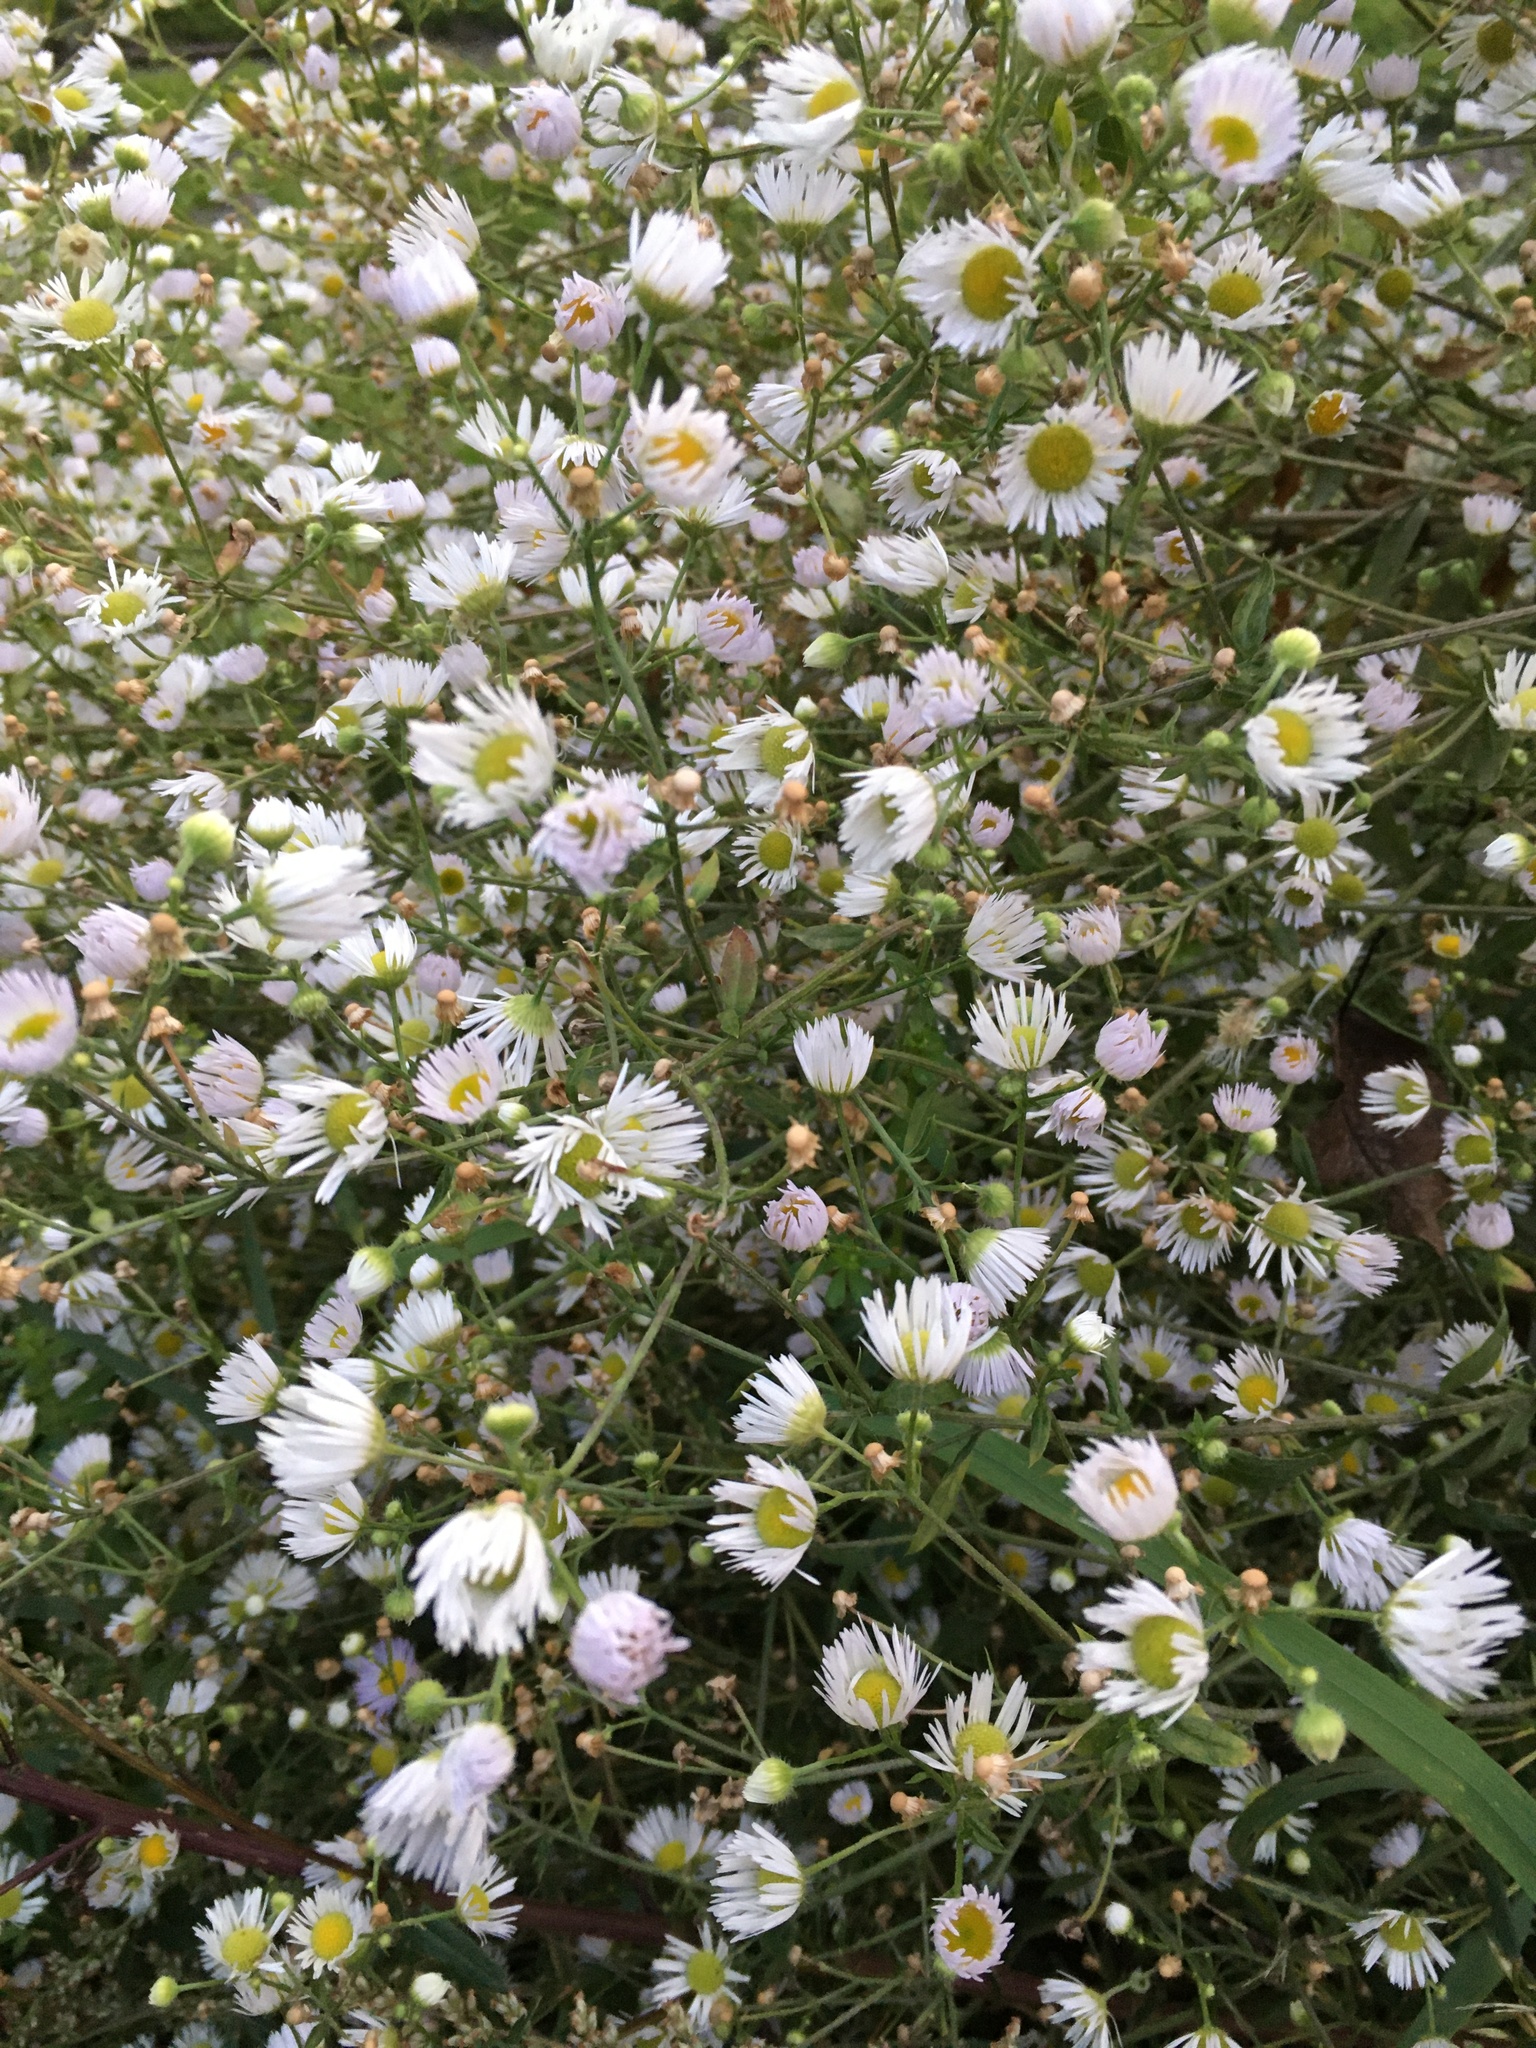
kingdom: Plantae
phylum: Tracheophyta
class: Magnoliopsida
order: Asterales
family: Asteraceae
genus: Erigeron
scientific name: Erigeron annuus
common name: Tall fleabane
